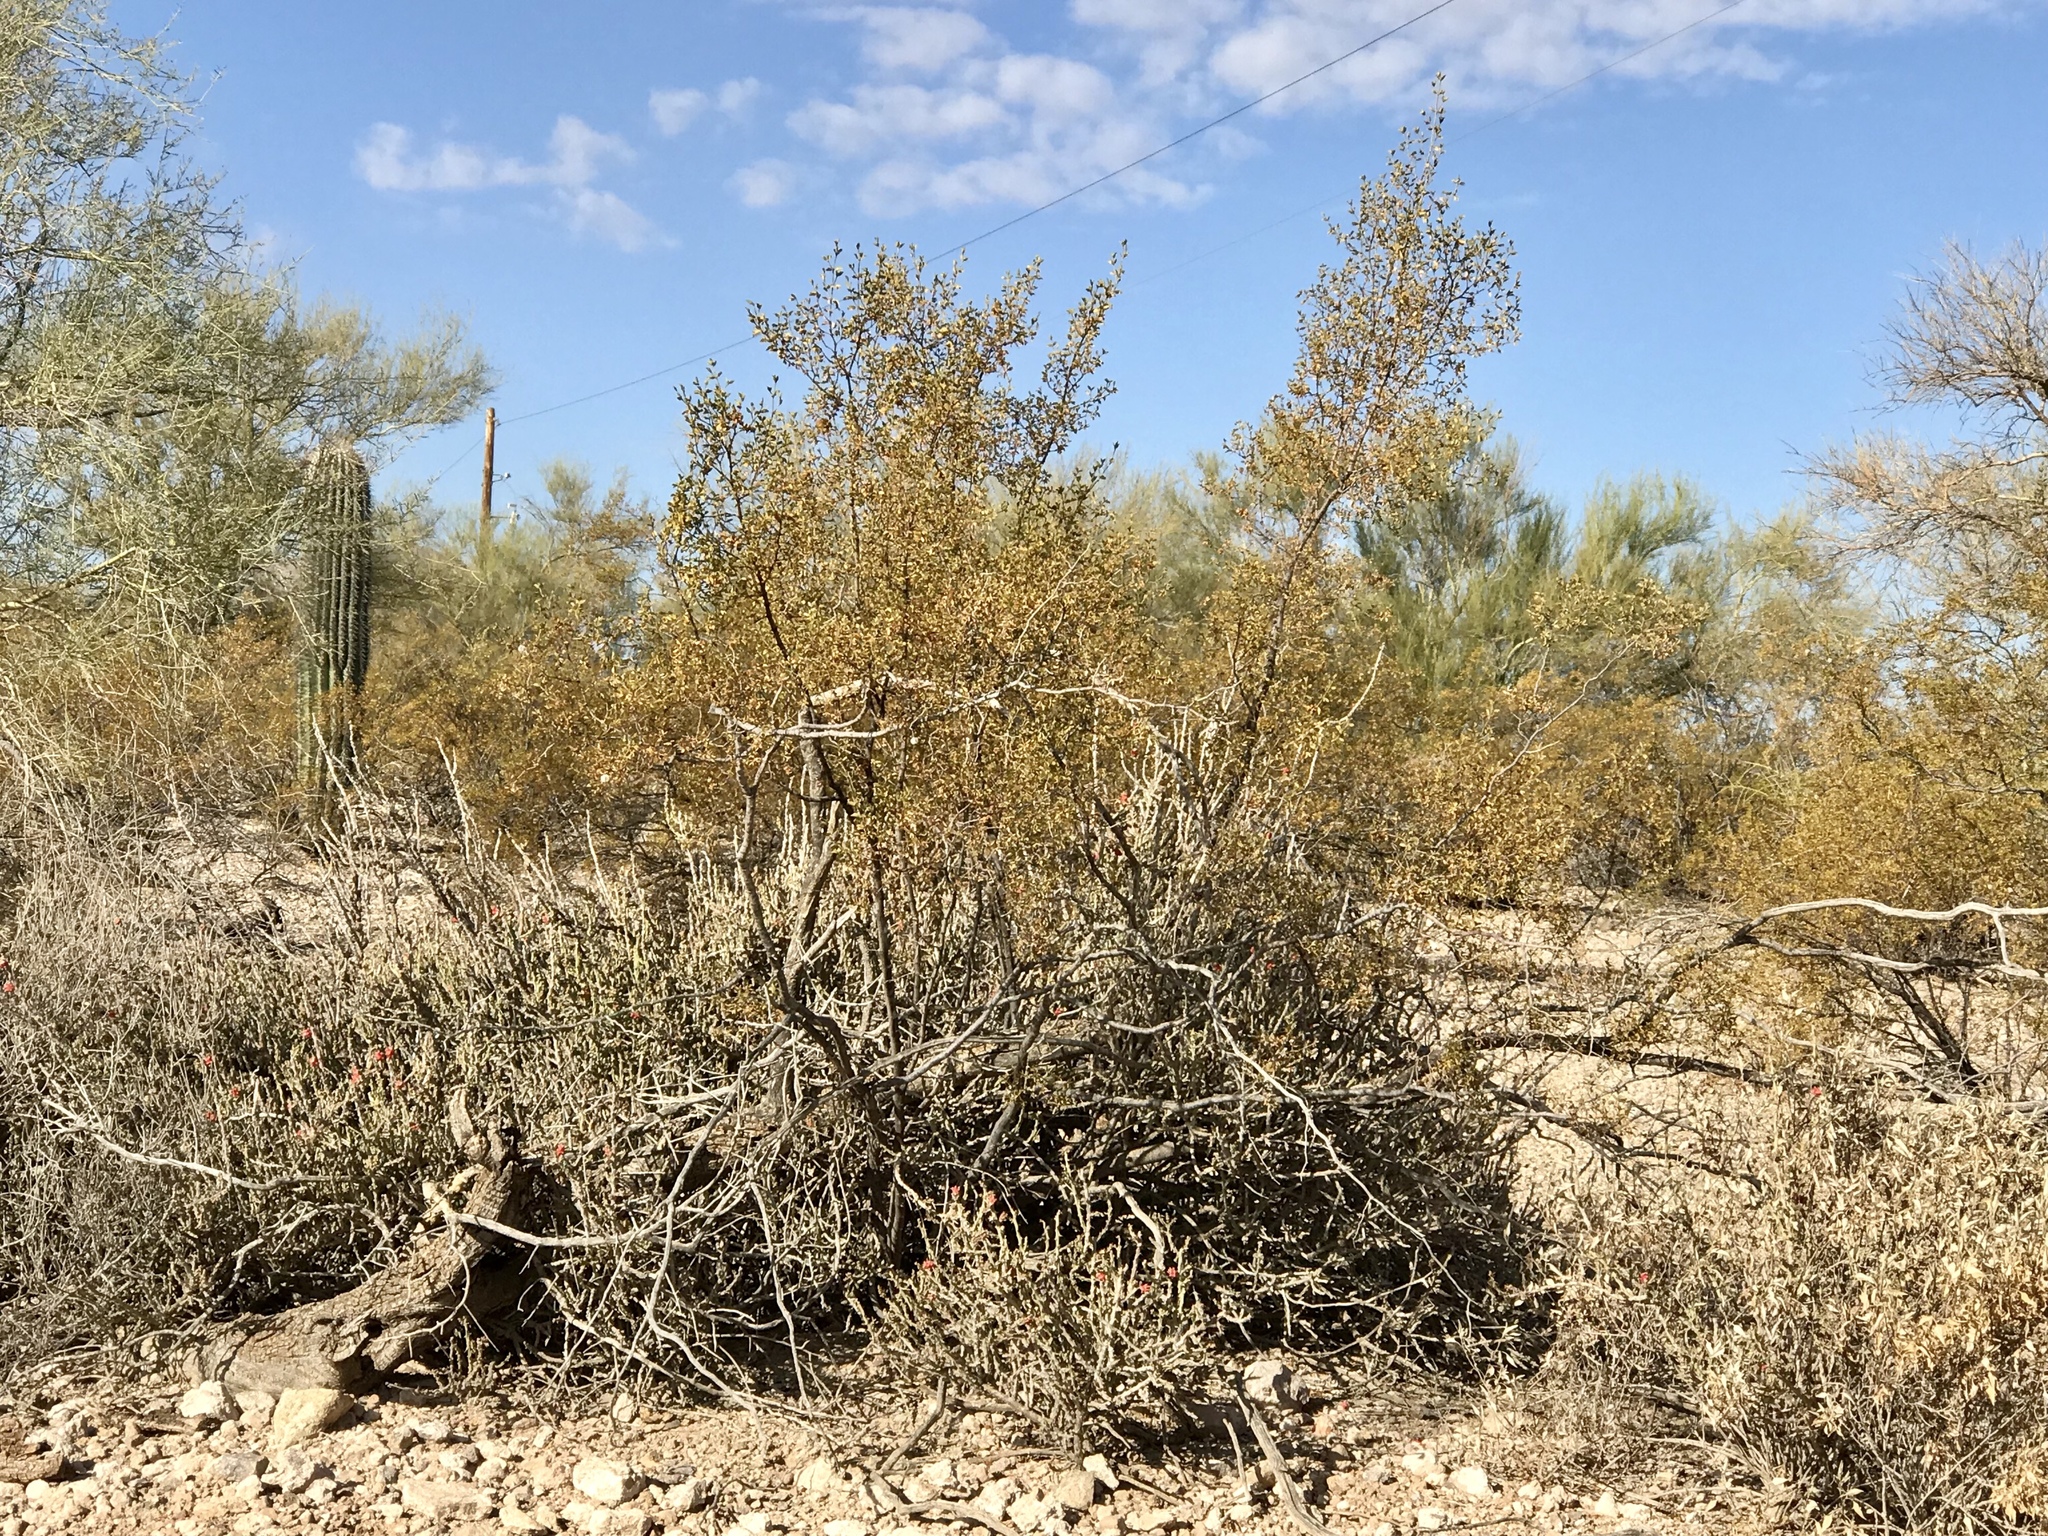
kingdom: Plantae
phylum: Tracheophyta
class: Magnoliopsida
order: Zygophyllales
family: Zygophyllaceae
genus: Larrea
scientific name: Larrea tridentata
